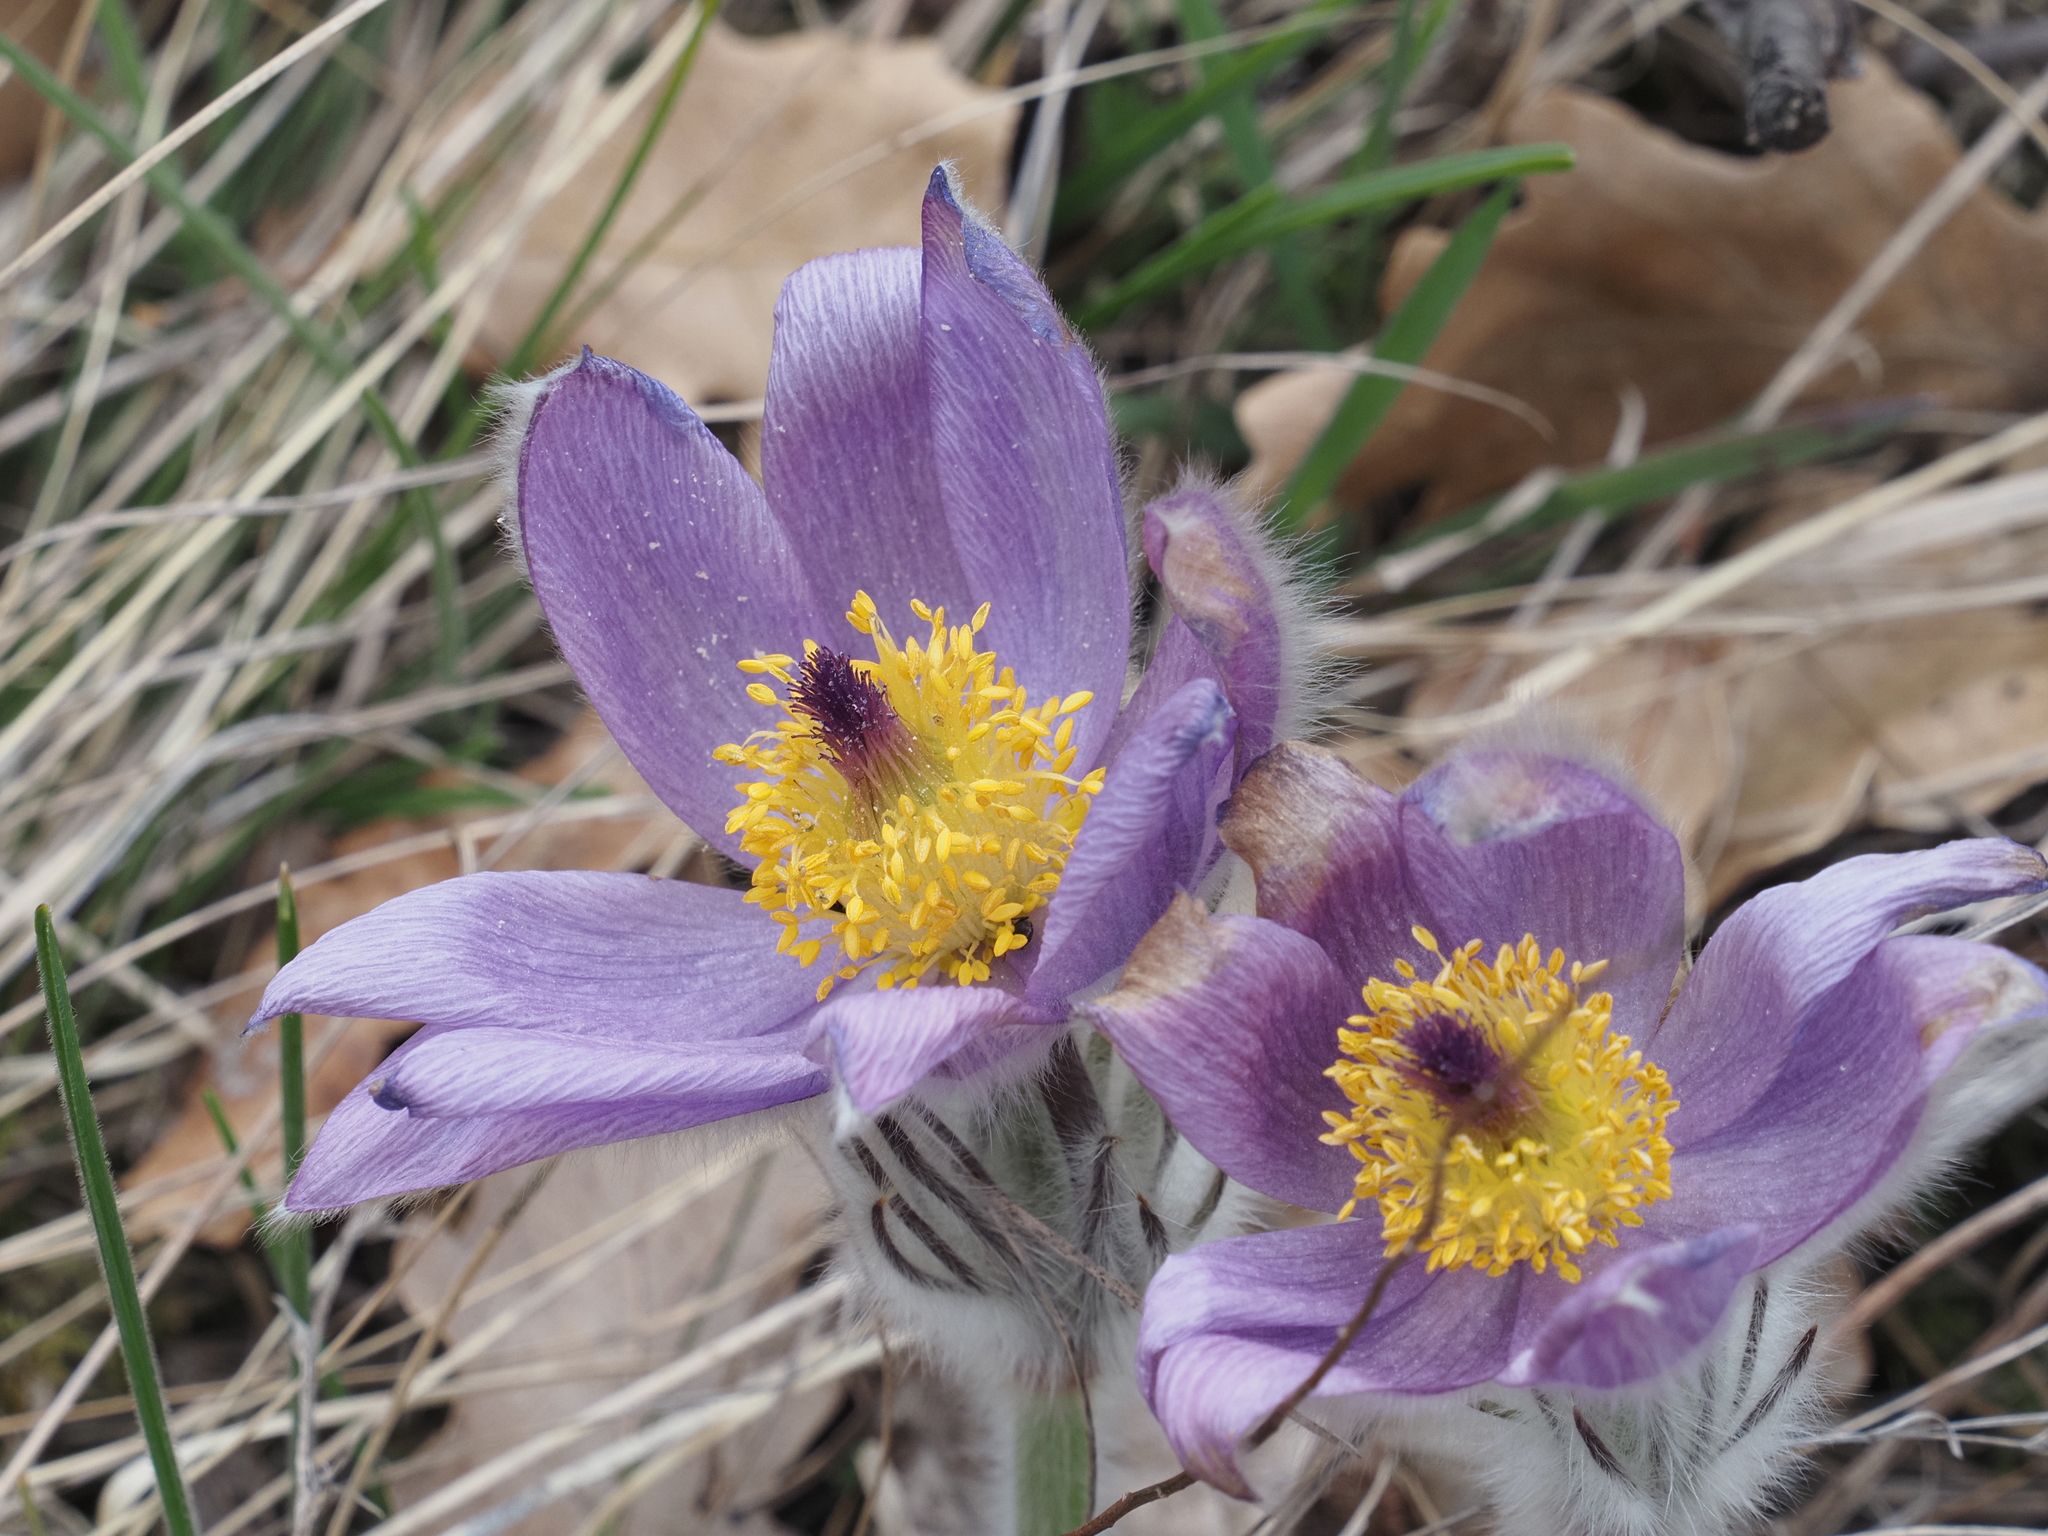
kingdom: Plantae
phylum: Tracheophyta
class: Magnoliopsida
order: Ranunculales
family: Ranunculaceae
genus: Pulsatilla
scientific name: Pulsatilla grandis
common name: Greater pasque flower
